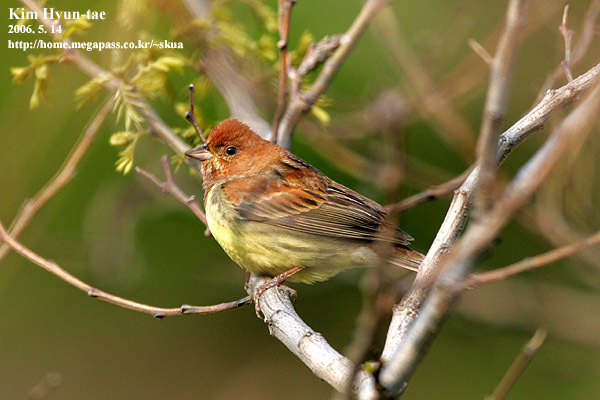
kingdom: Animalia
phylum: Chordata
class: Aves
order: Passeriformes
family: Emberizidae
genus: Emberiza
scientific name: Emberiza rutila
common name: Chestnut bunting
